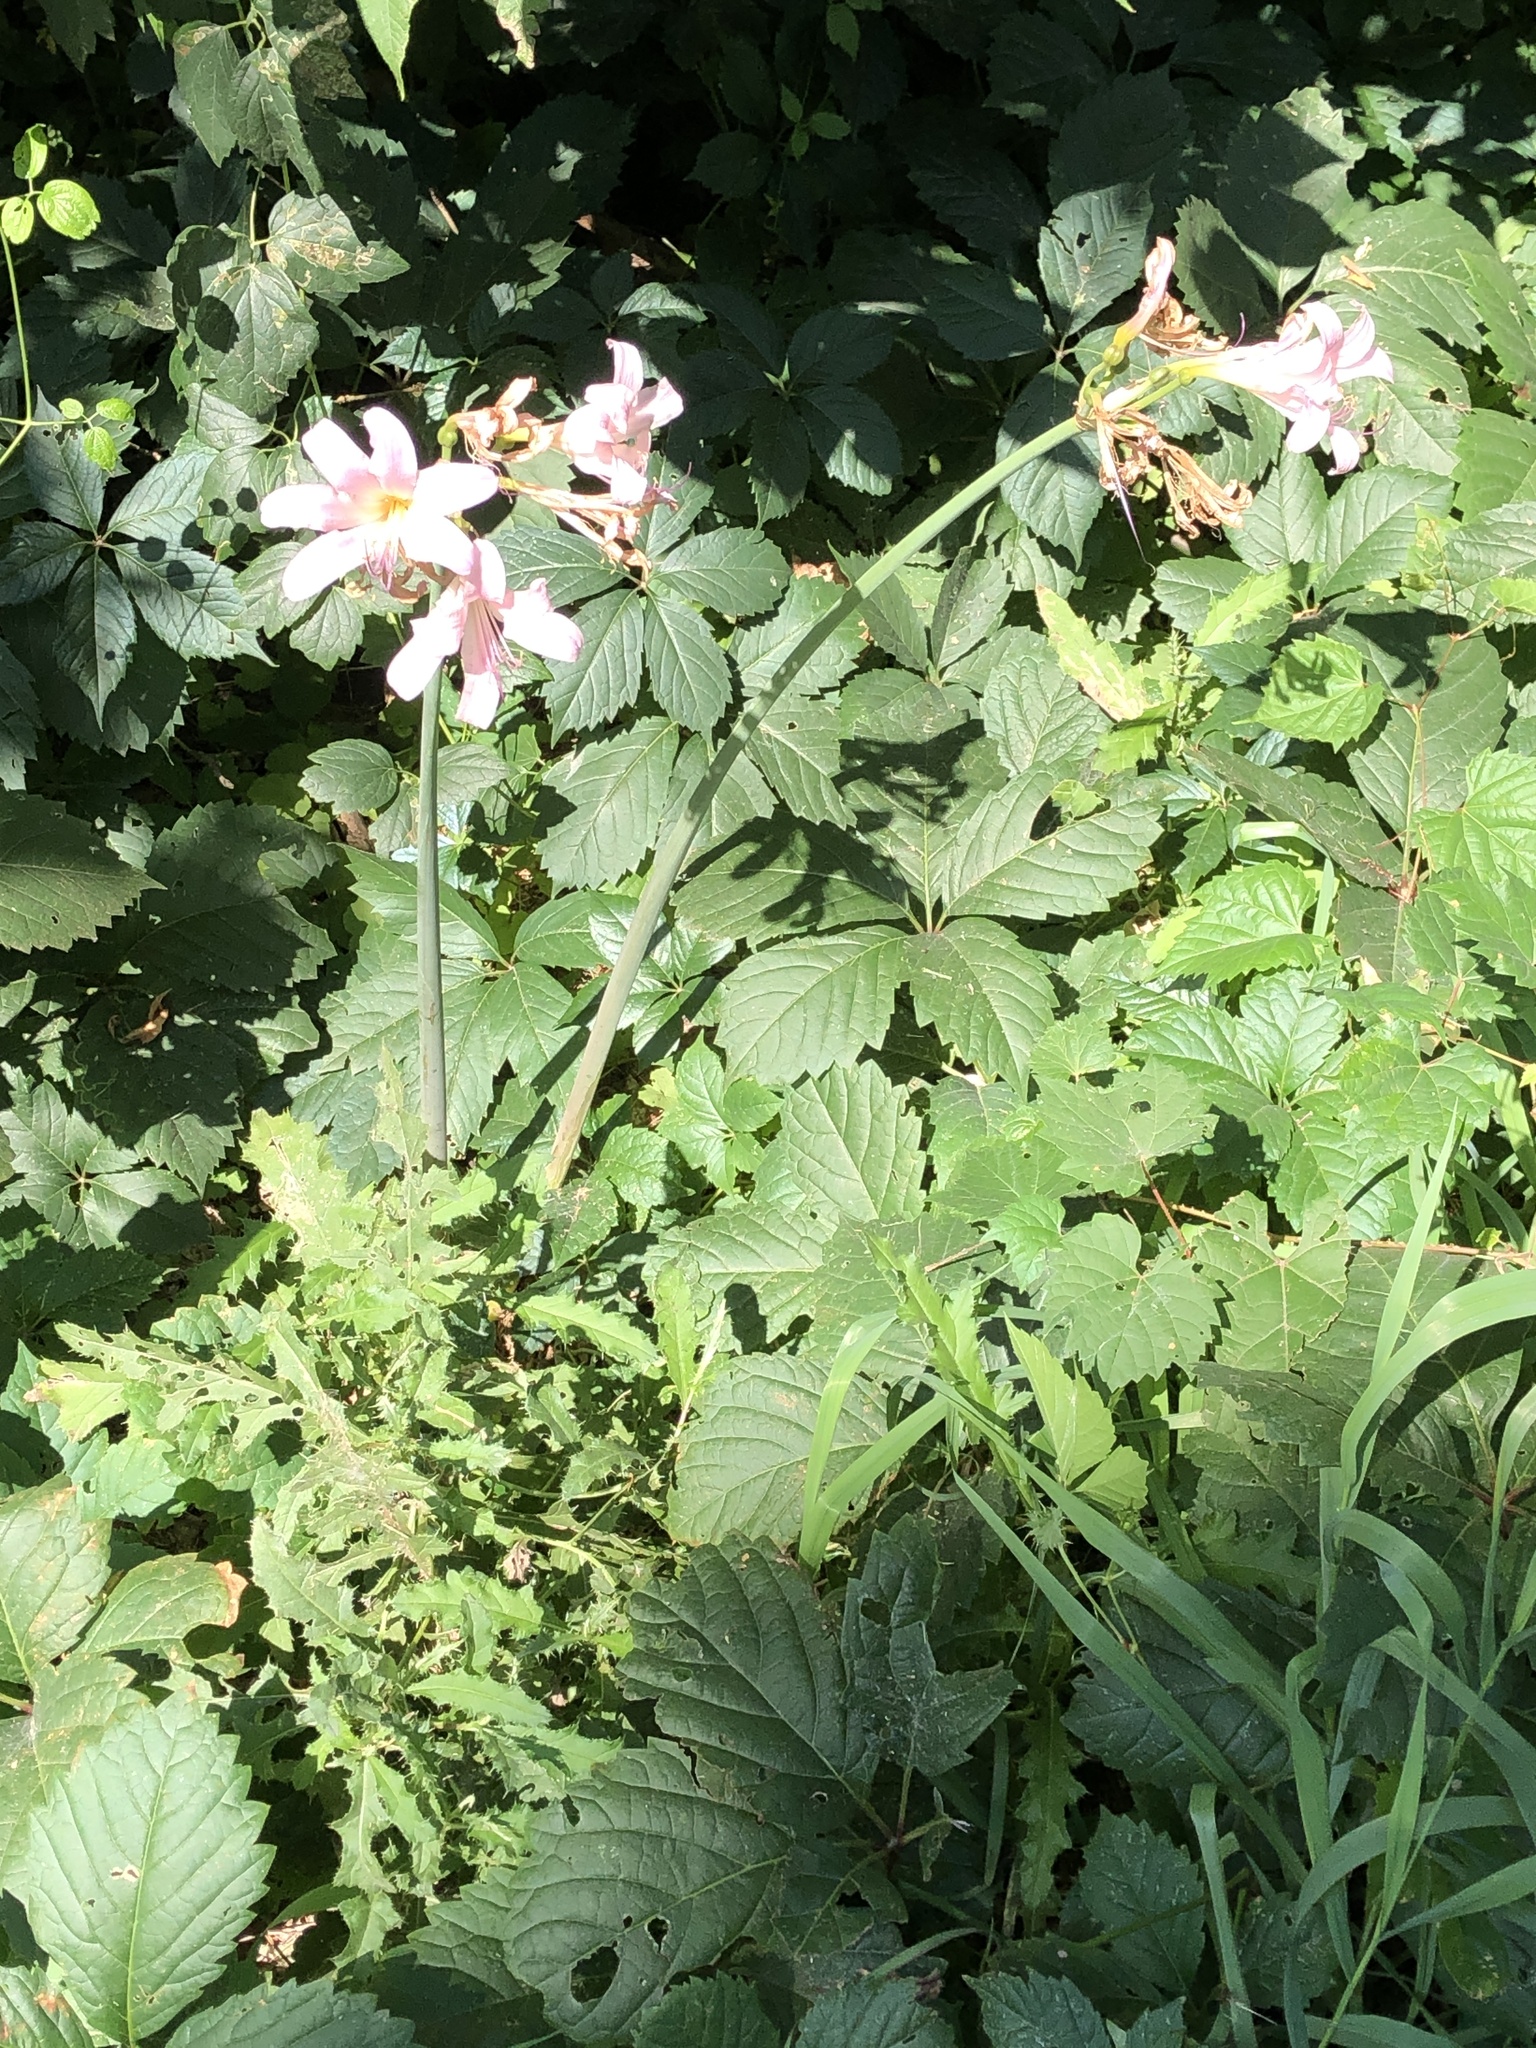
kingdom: Plantae
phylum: Tracheophyta
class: Liliopsida
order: Asparagales
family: Amaryllidaceae
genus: Lycoris
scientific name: Lycoris squamigera
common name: Magic-lily
